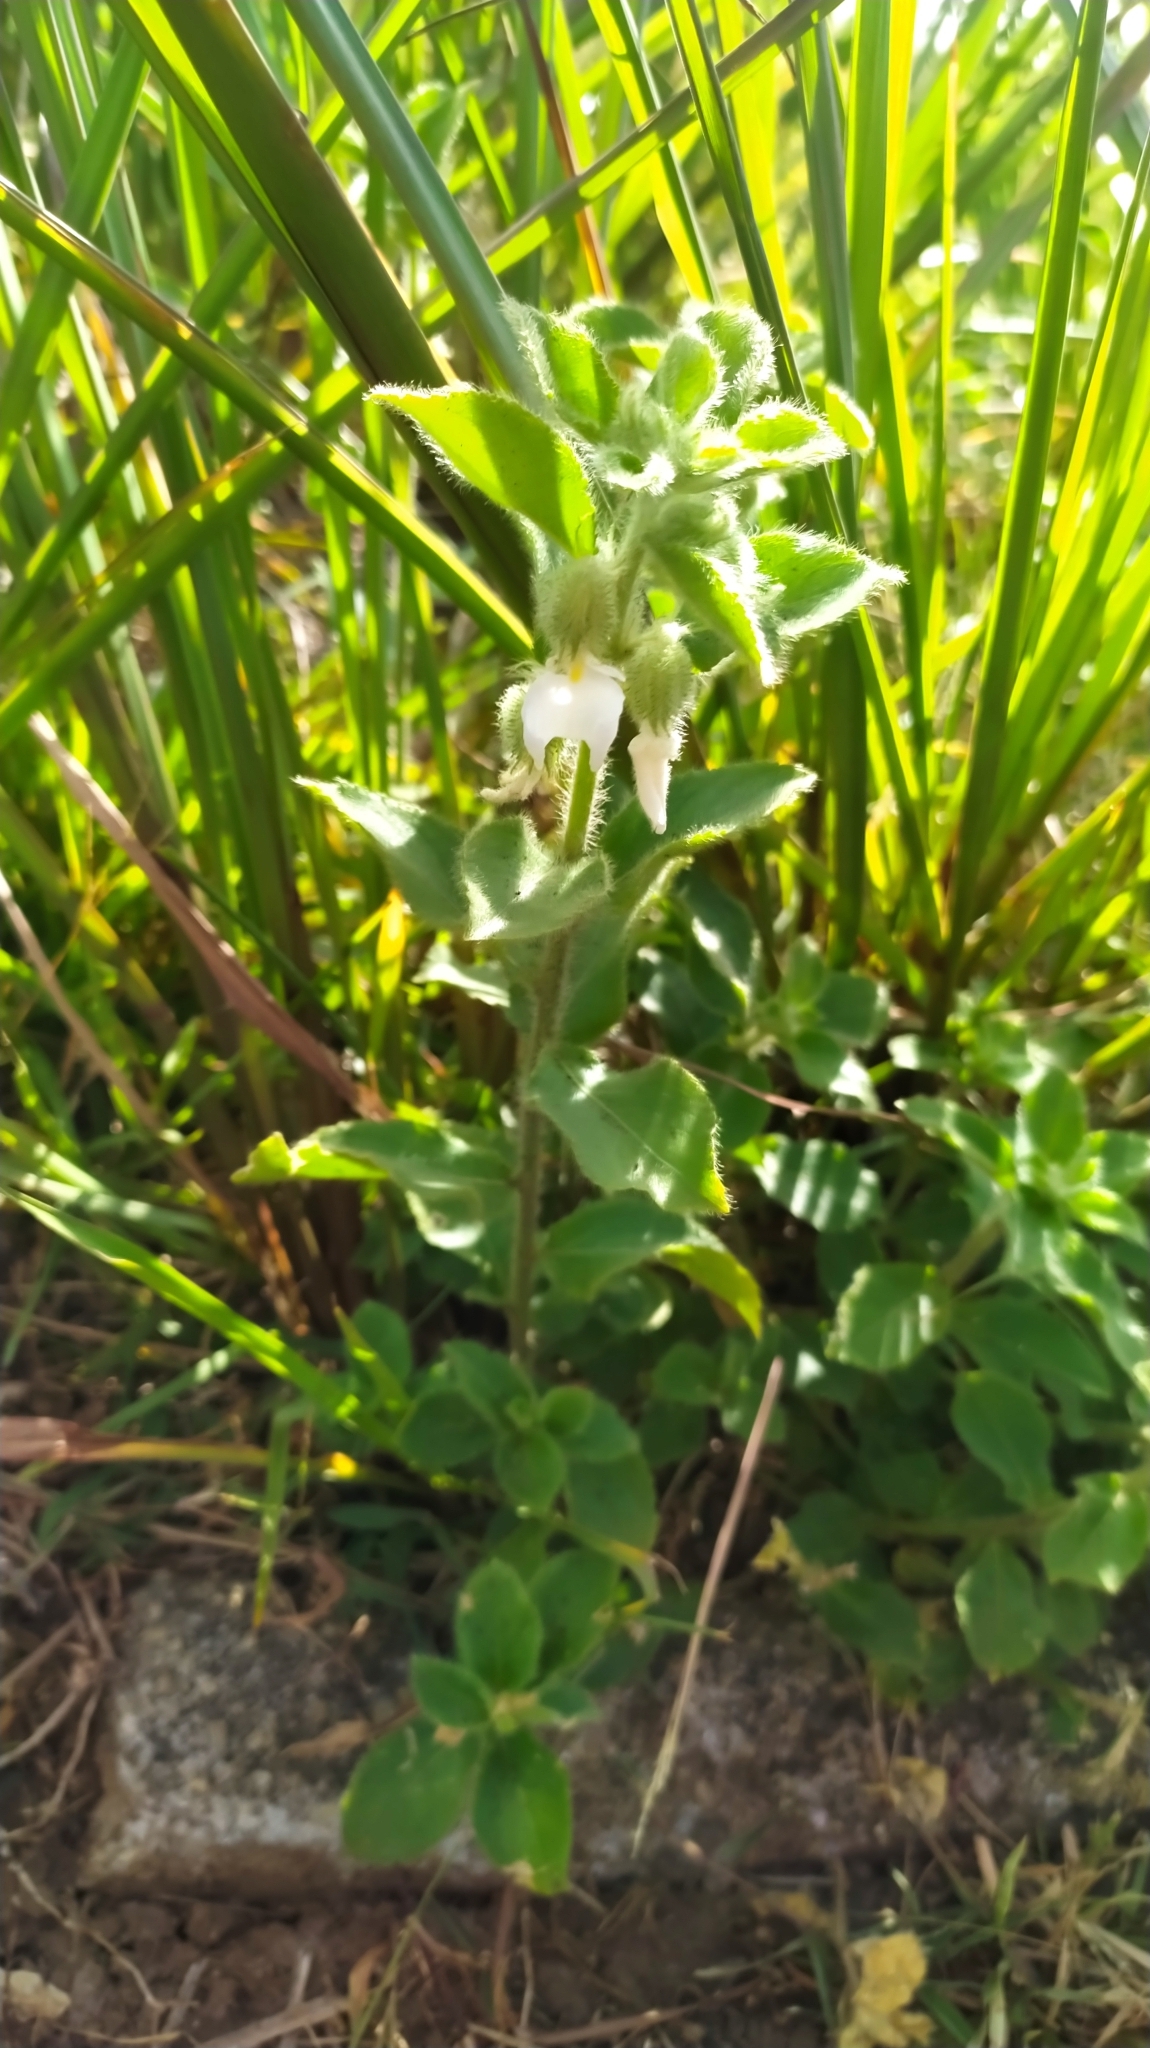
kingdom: Plantae
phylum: Tracheophyta
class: Magnoliopsida
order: Malpighiales
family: Violaceae
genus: Pombalia
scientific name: Pombalia calceolaria
